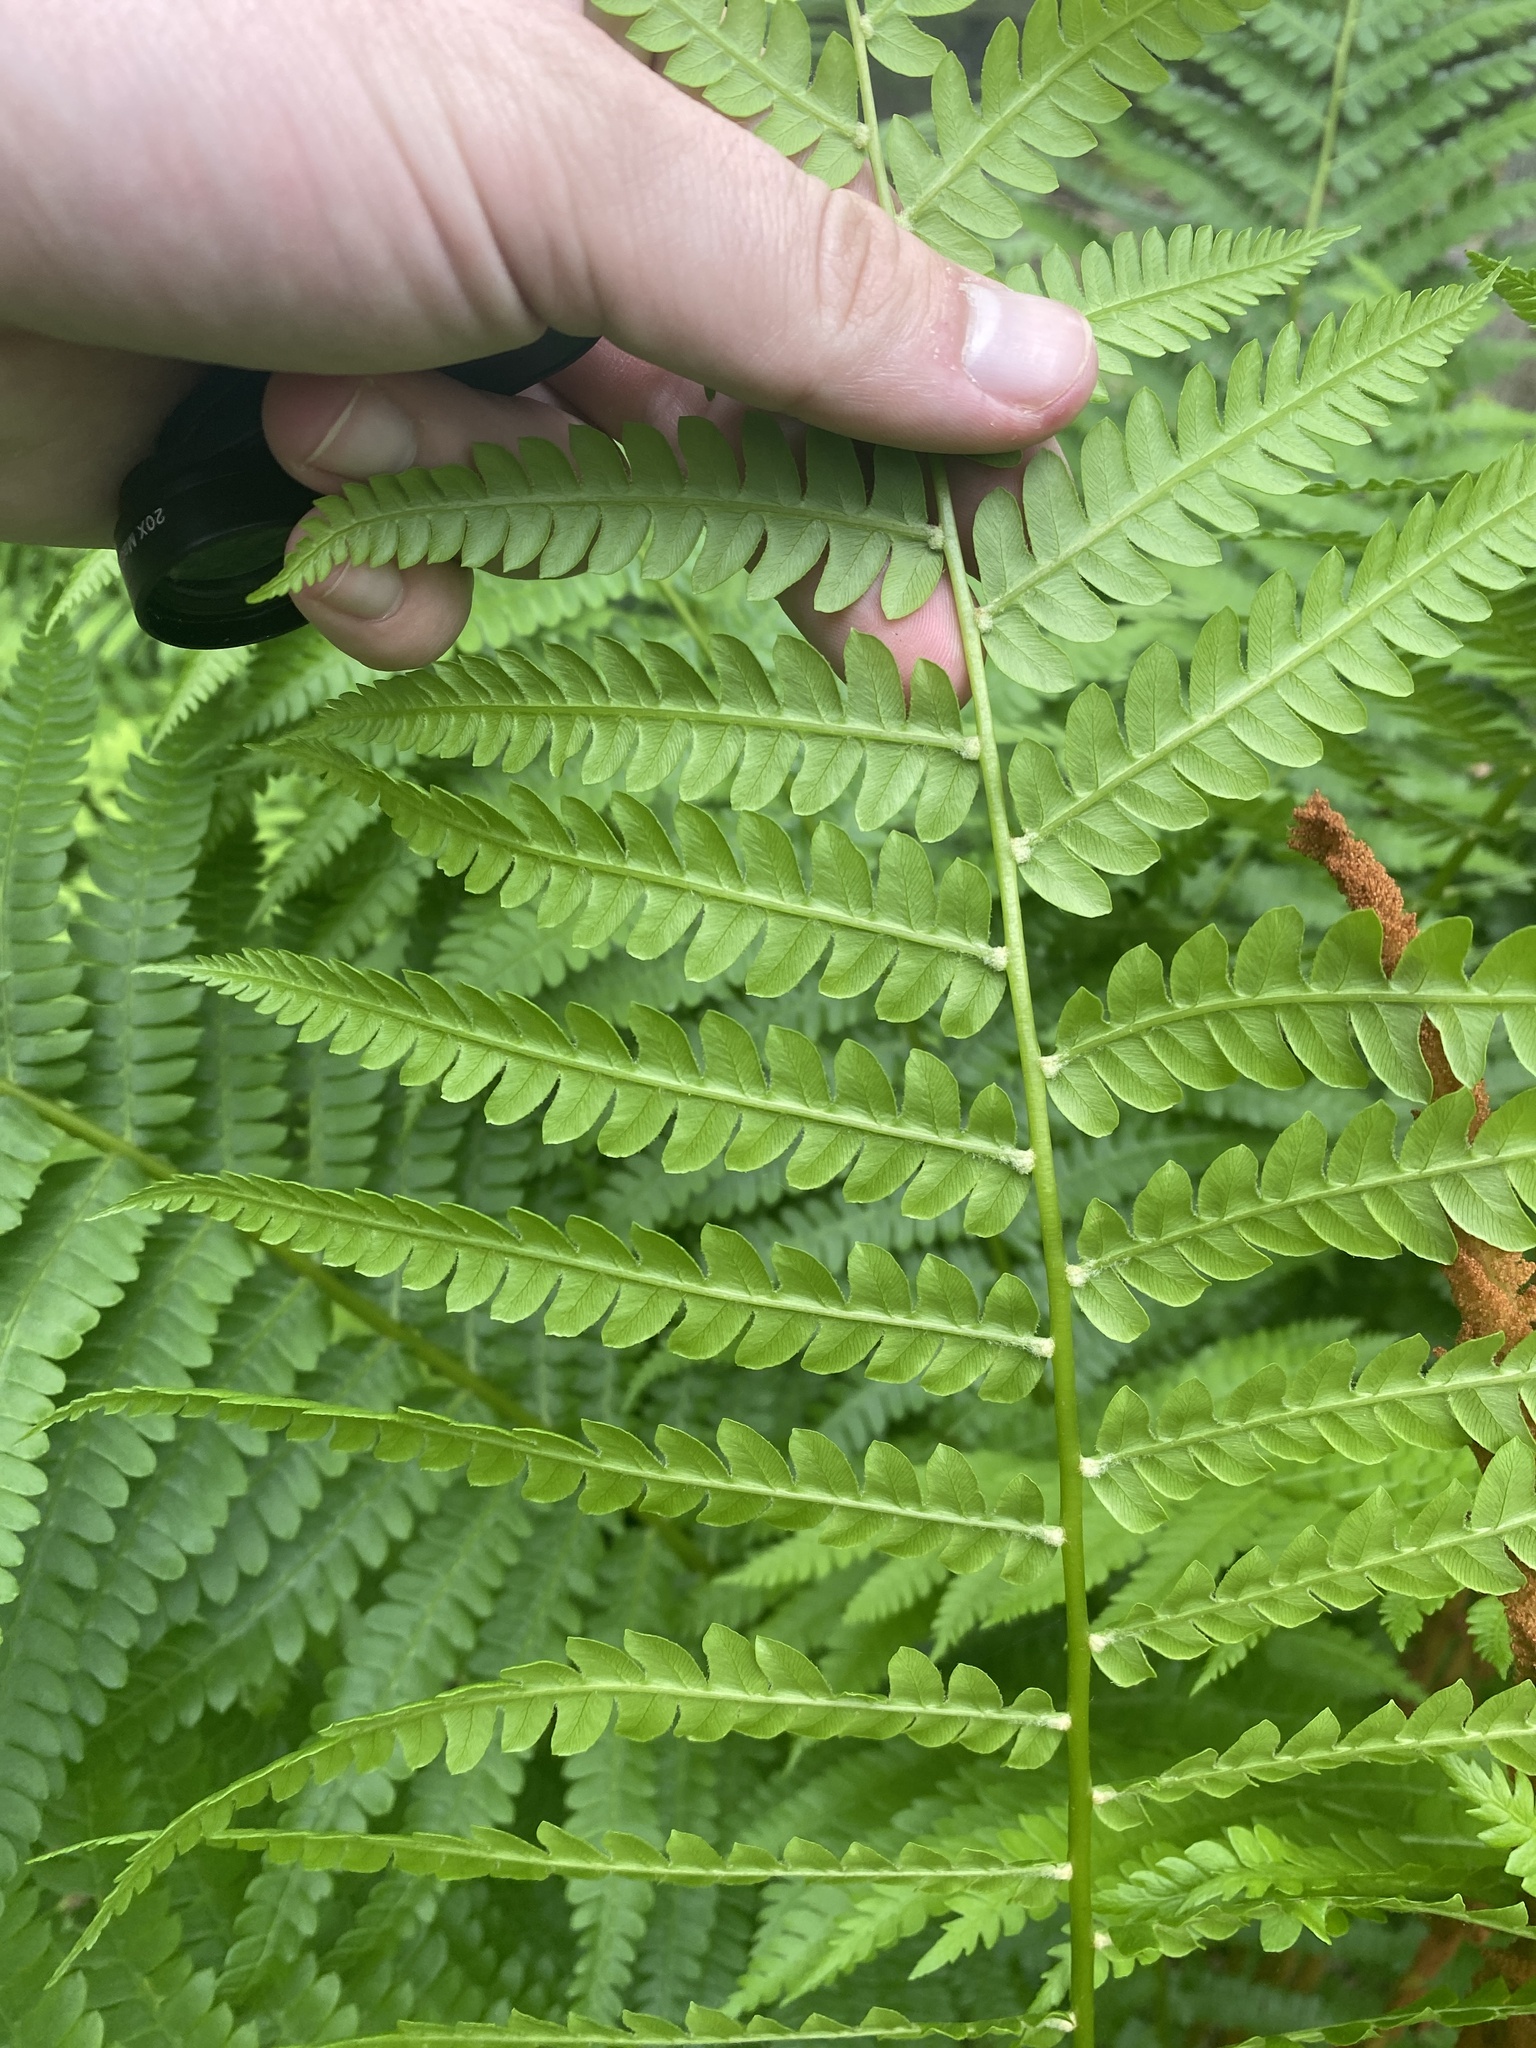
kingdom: Plantae
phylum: Tracheophyta
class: Polypodiopsida
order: Osmundales
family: Osmundaceae
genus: Osmundastrum
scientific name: Osmundastrum cinnamomeum
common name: Cinnamon fern
